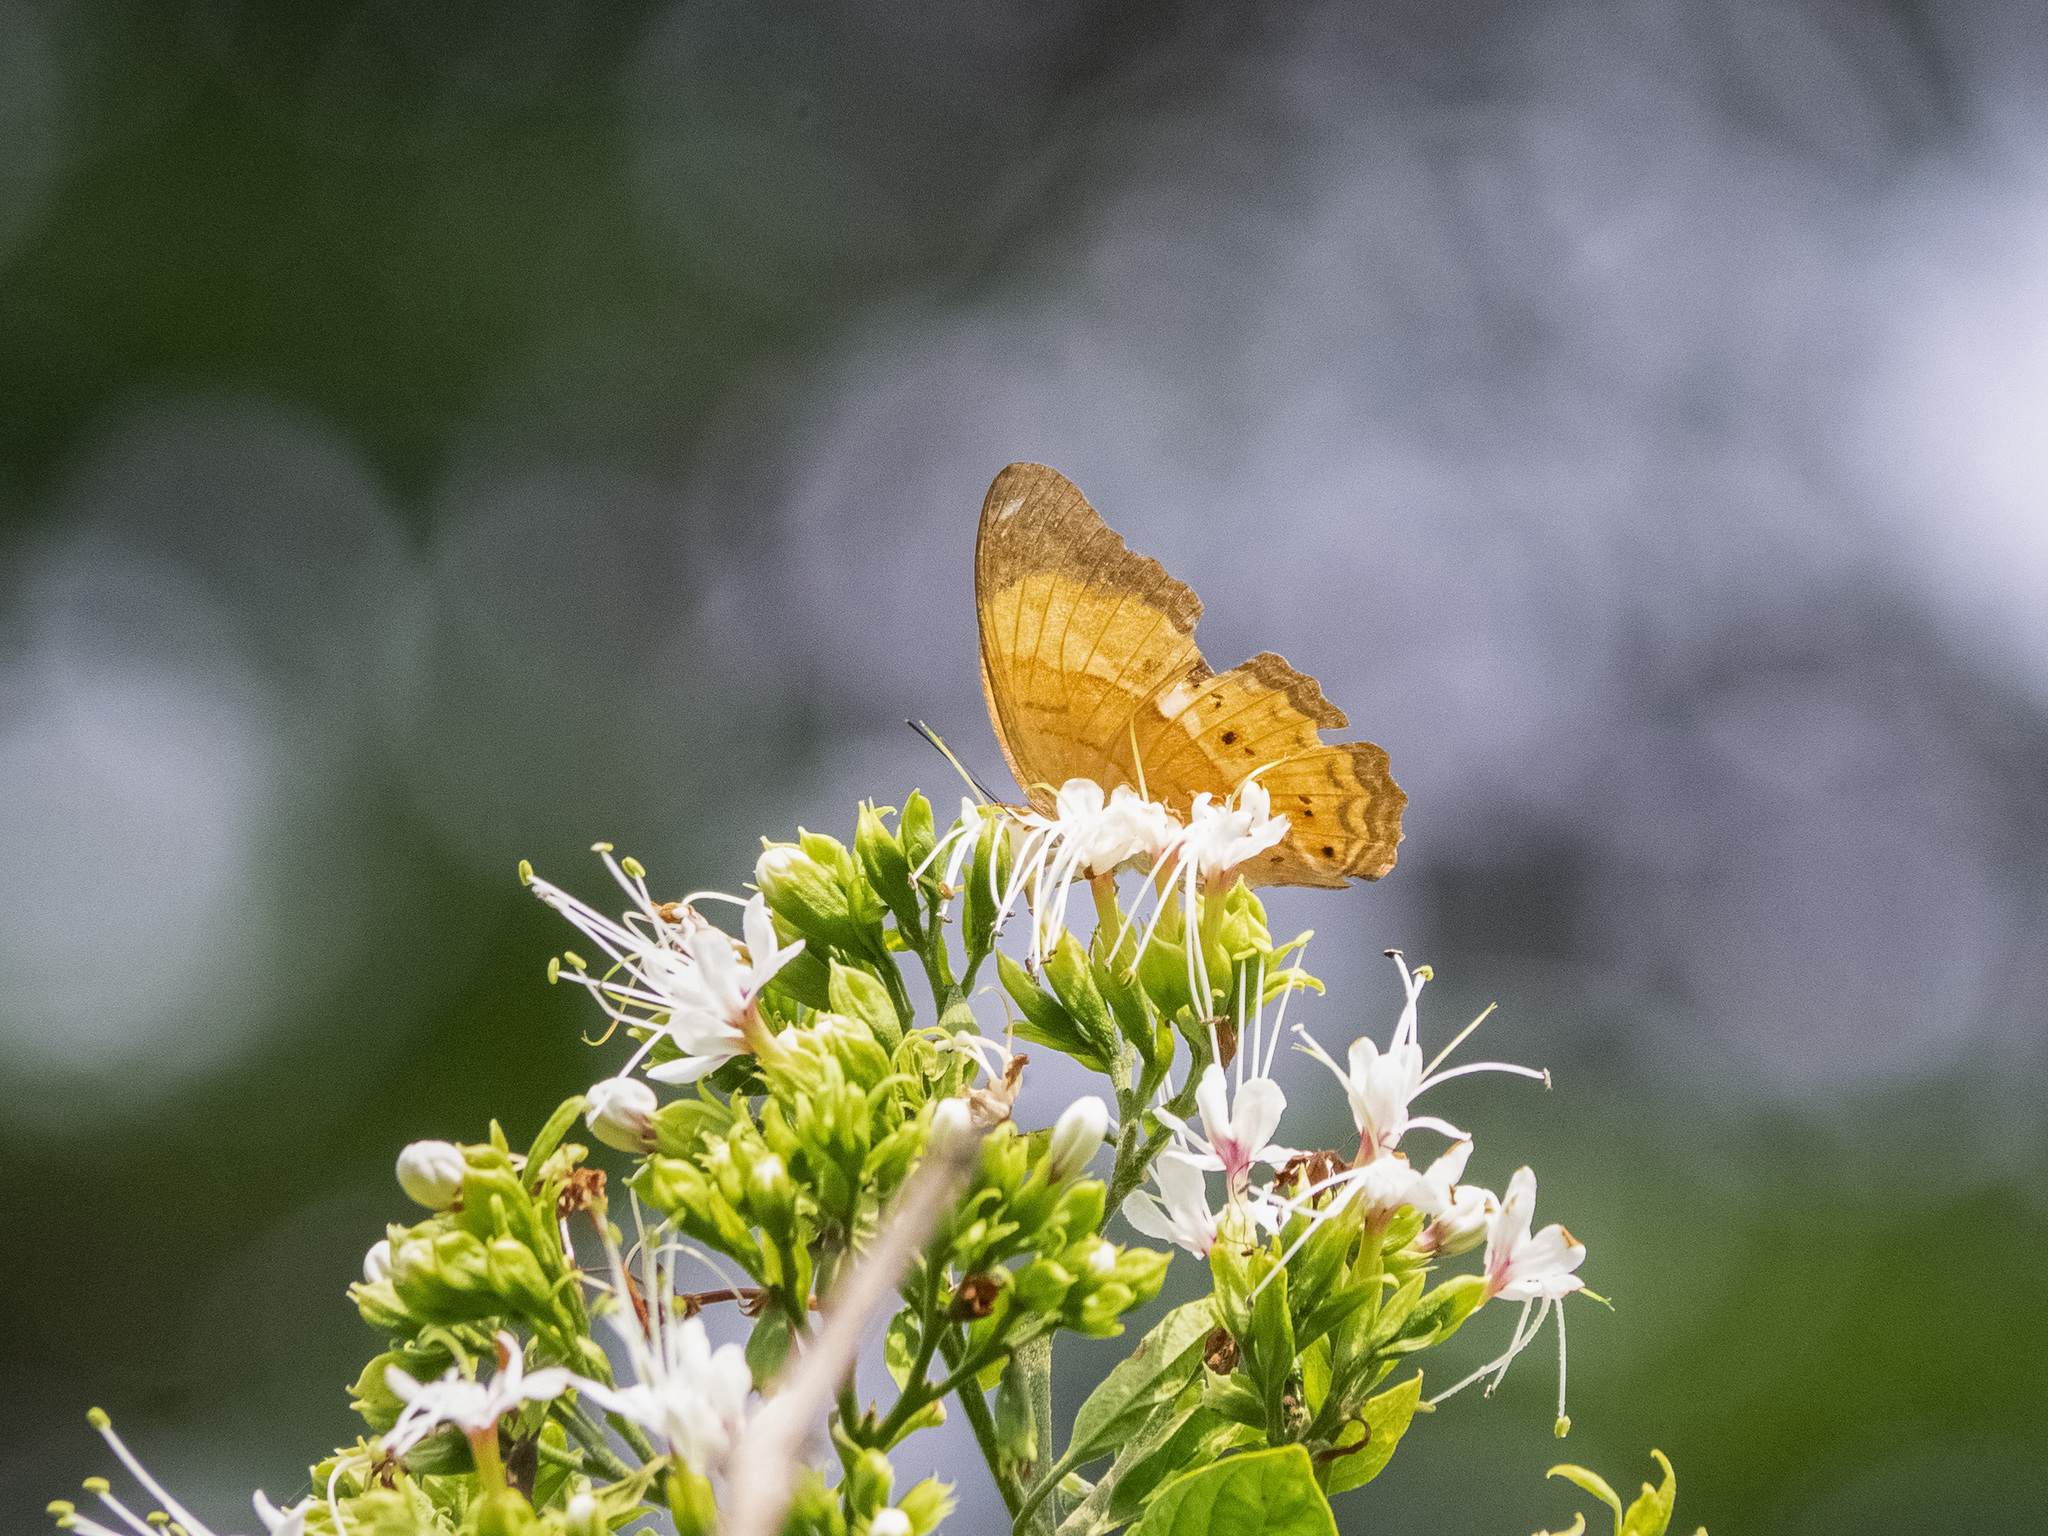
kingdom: Animalia
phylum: Arthropoda
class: Insecta
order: Lepidoptera
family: Nymphalidae
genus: Cirrochroa
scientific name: Cirrochroa emalea
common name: Malay yeoman
